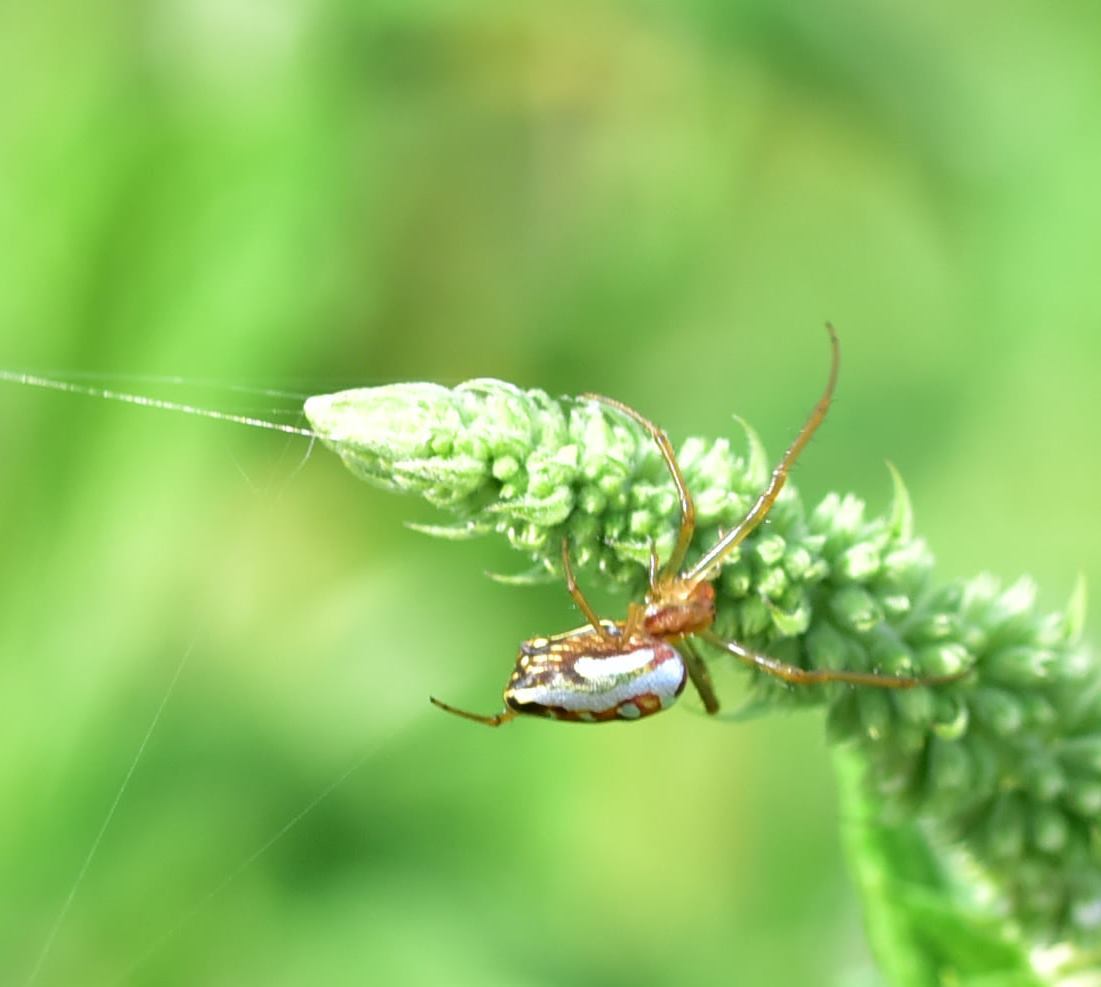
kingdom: Animalia
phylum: Arthropoda
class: Arachnida
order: Araneae
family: Tetragnathidae
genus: Leucauge
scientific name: Leucauge festiva
